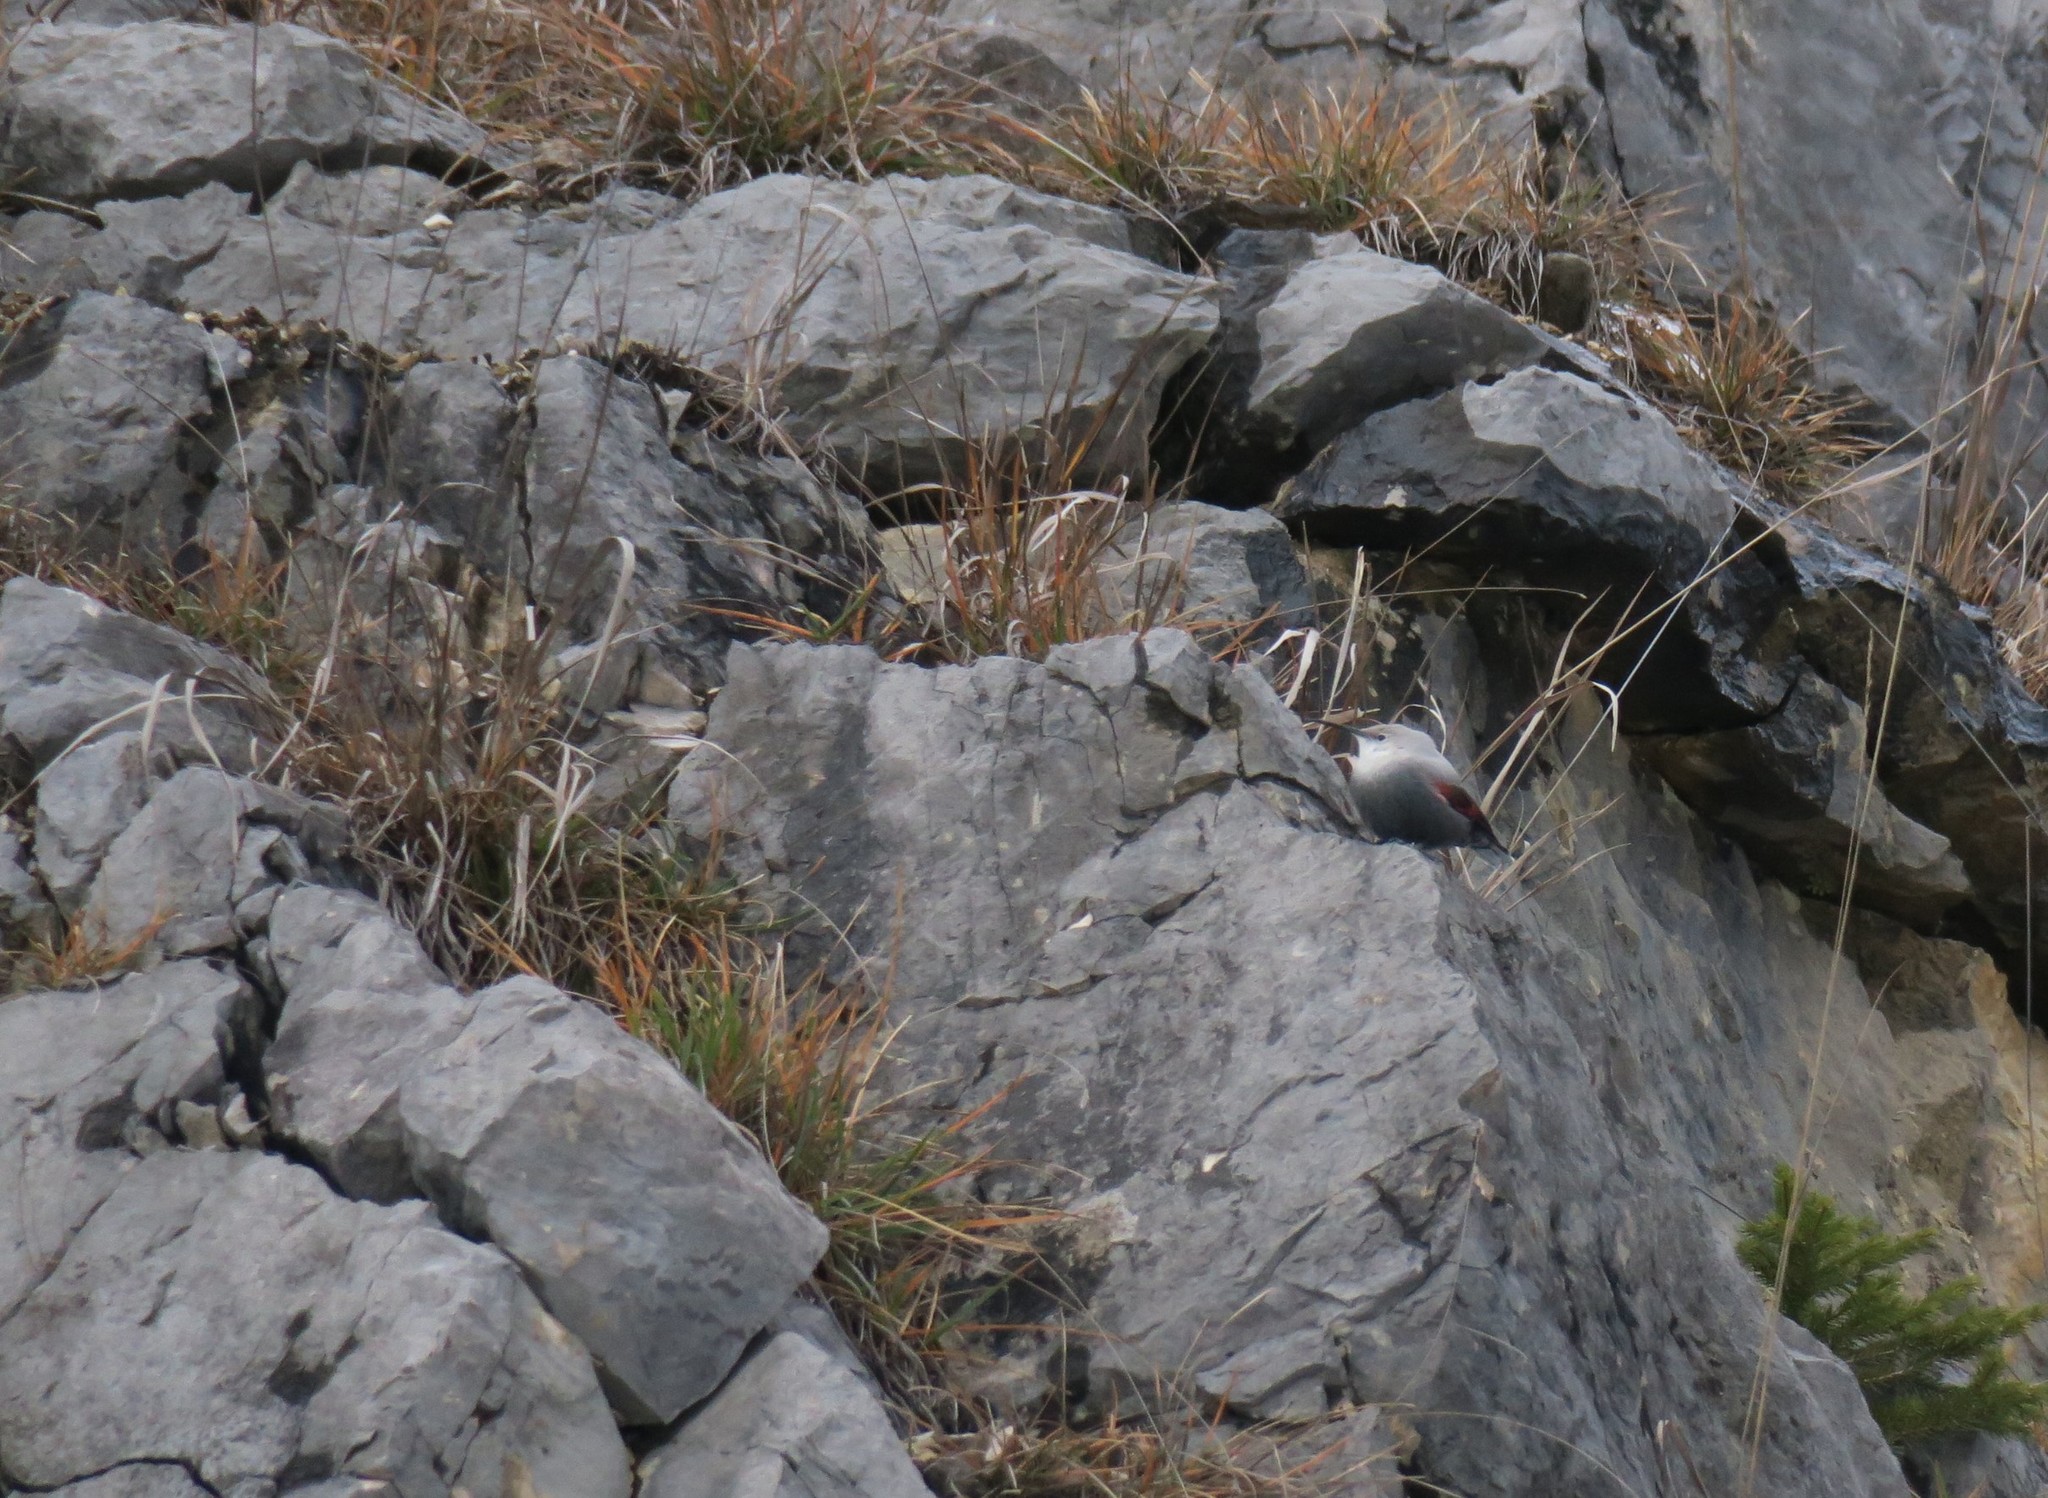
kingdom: Animalia
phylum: Chordata
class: Aves
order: Passeriformes
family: Tichodromidae
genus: Tichodroma
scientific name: Tichodroma muraria
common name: Wallcreeper
